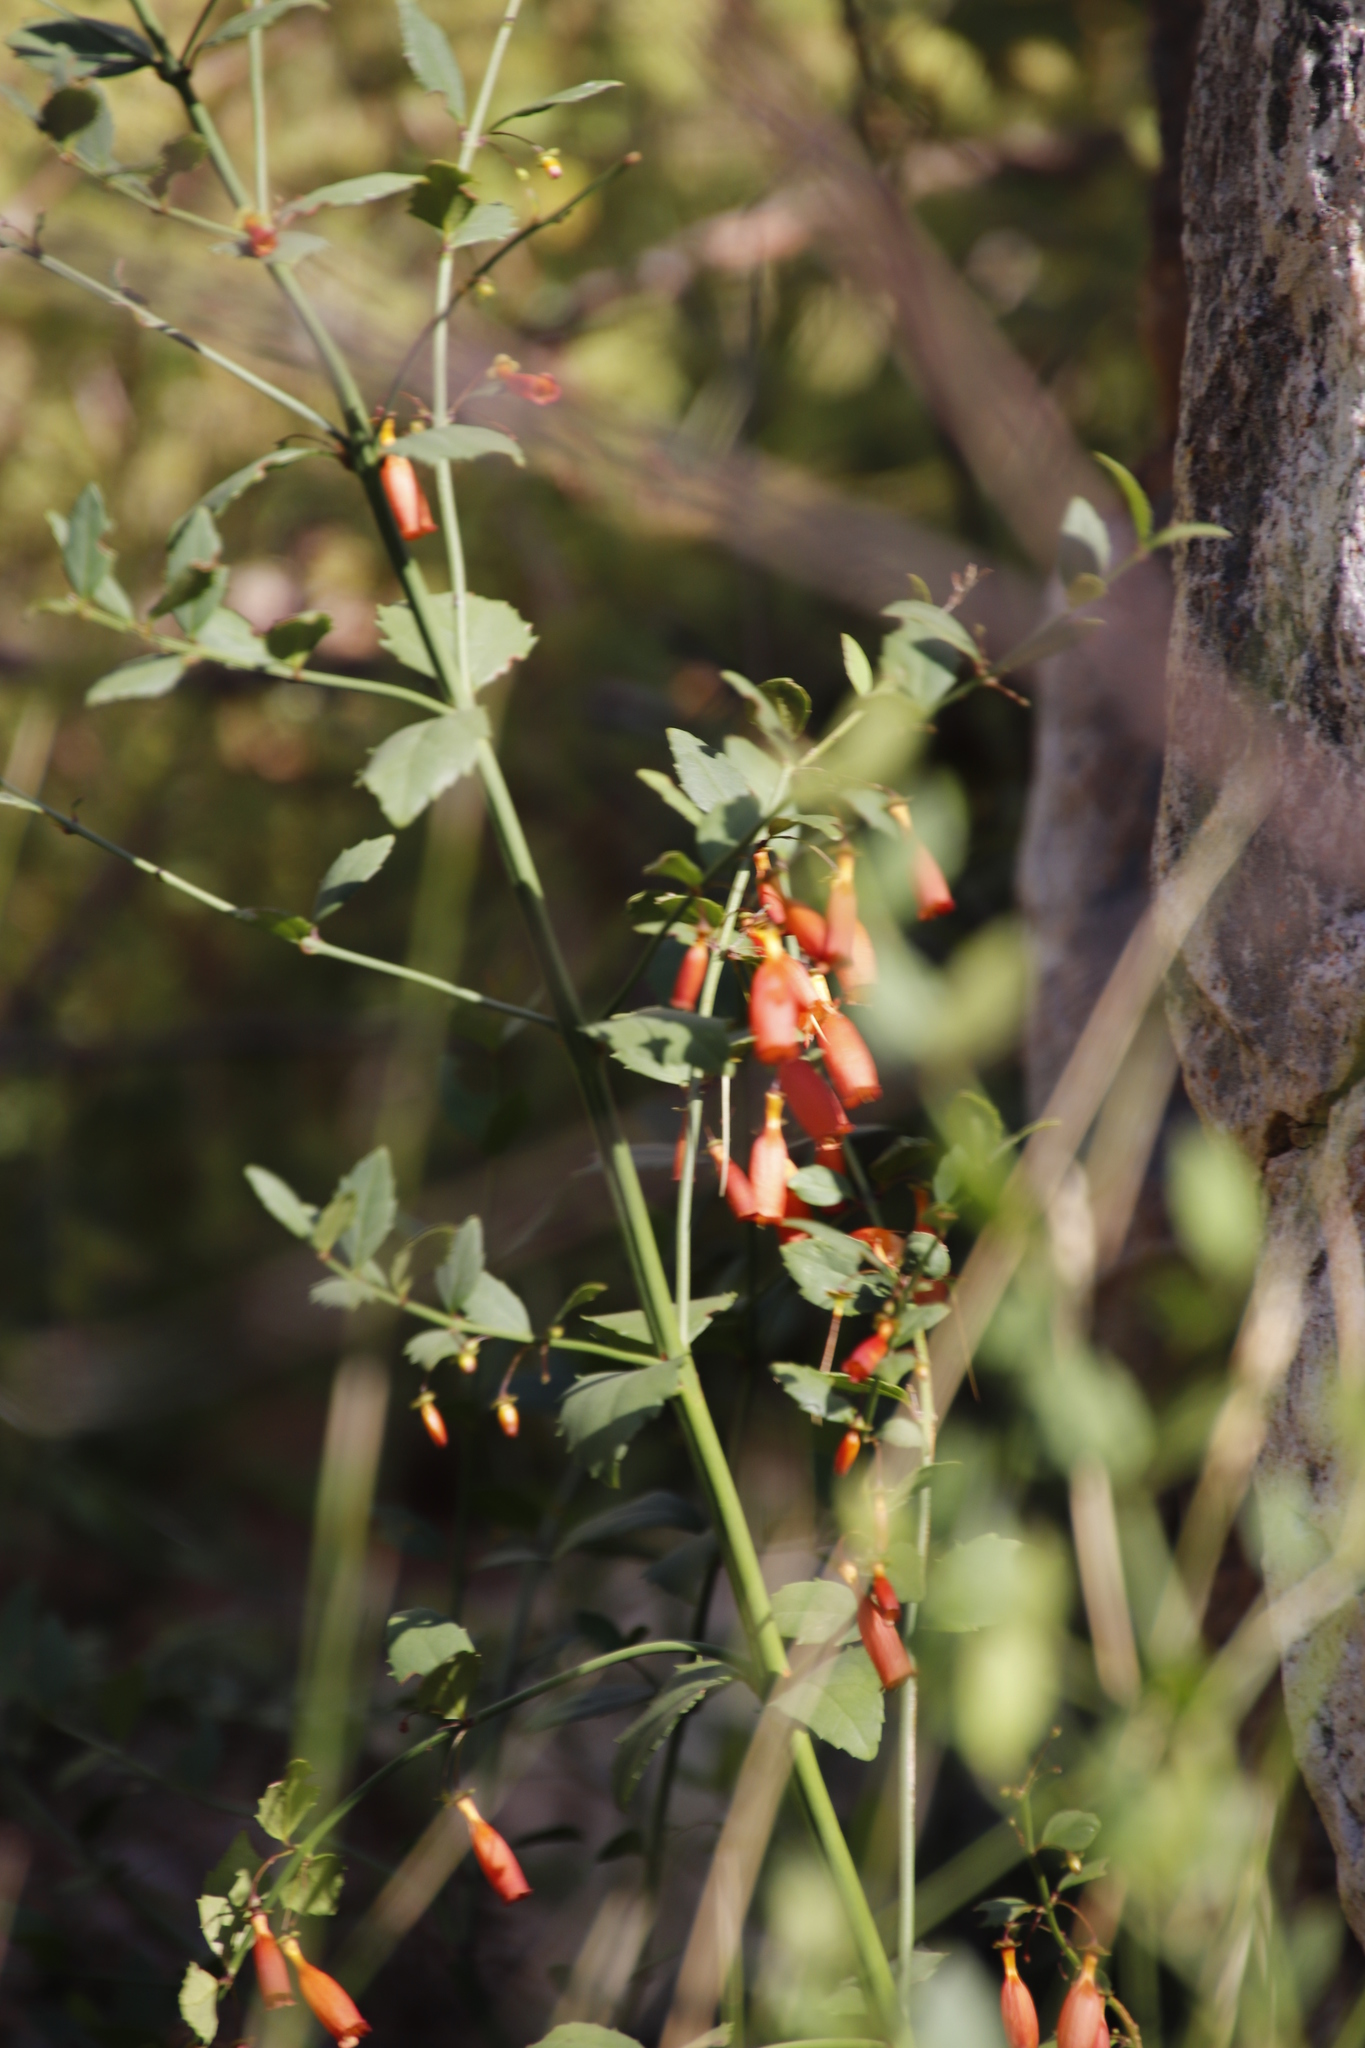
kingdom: Plantae
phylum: Tracheophyta
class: Magnoliopsida
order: Lamiales
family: Stilbaceae
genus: Halleria
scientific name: Halleria elliptica
